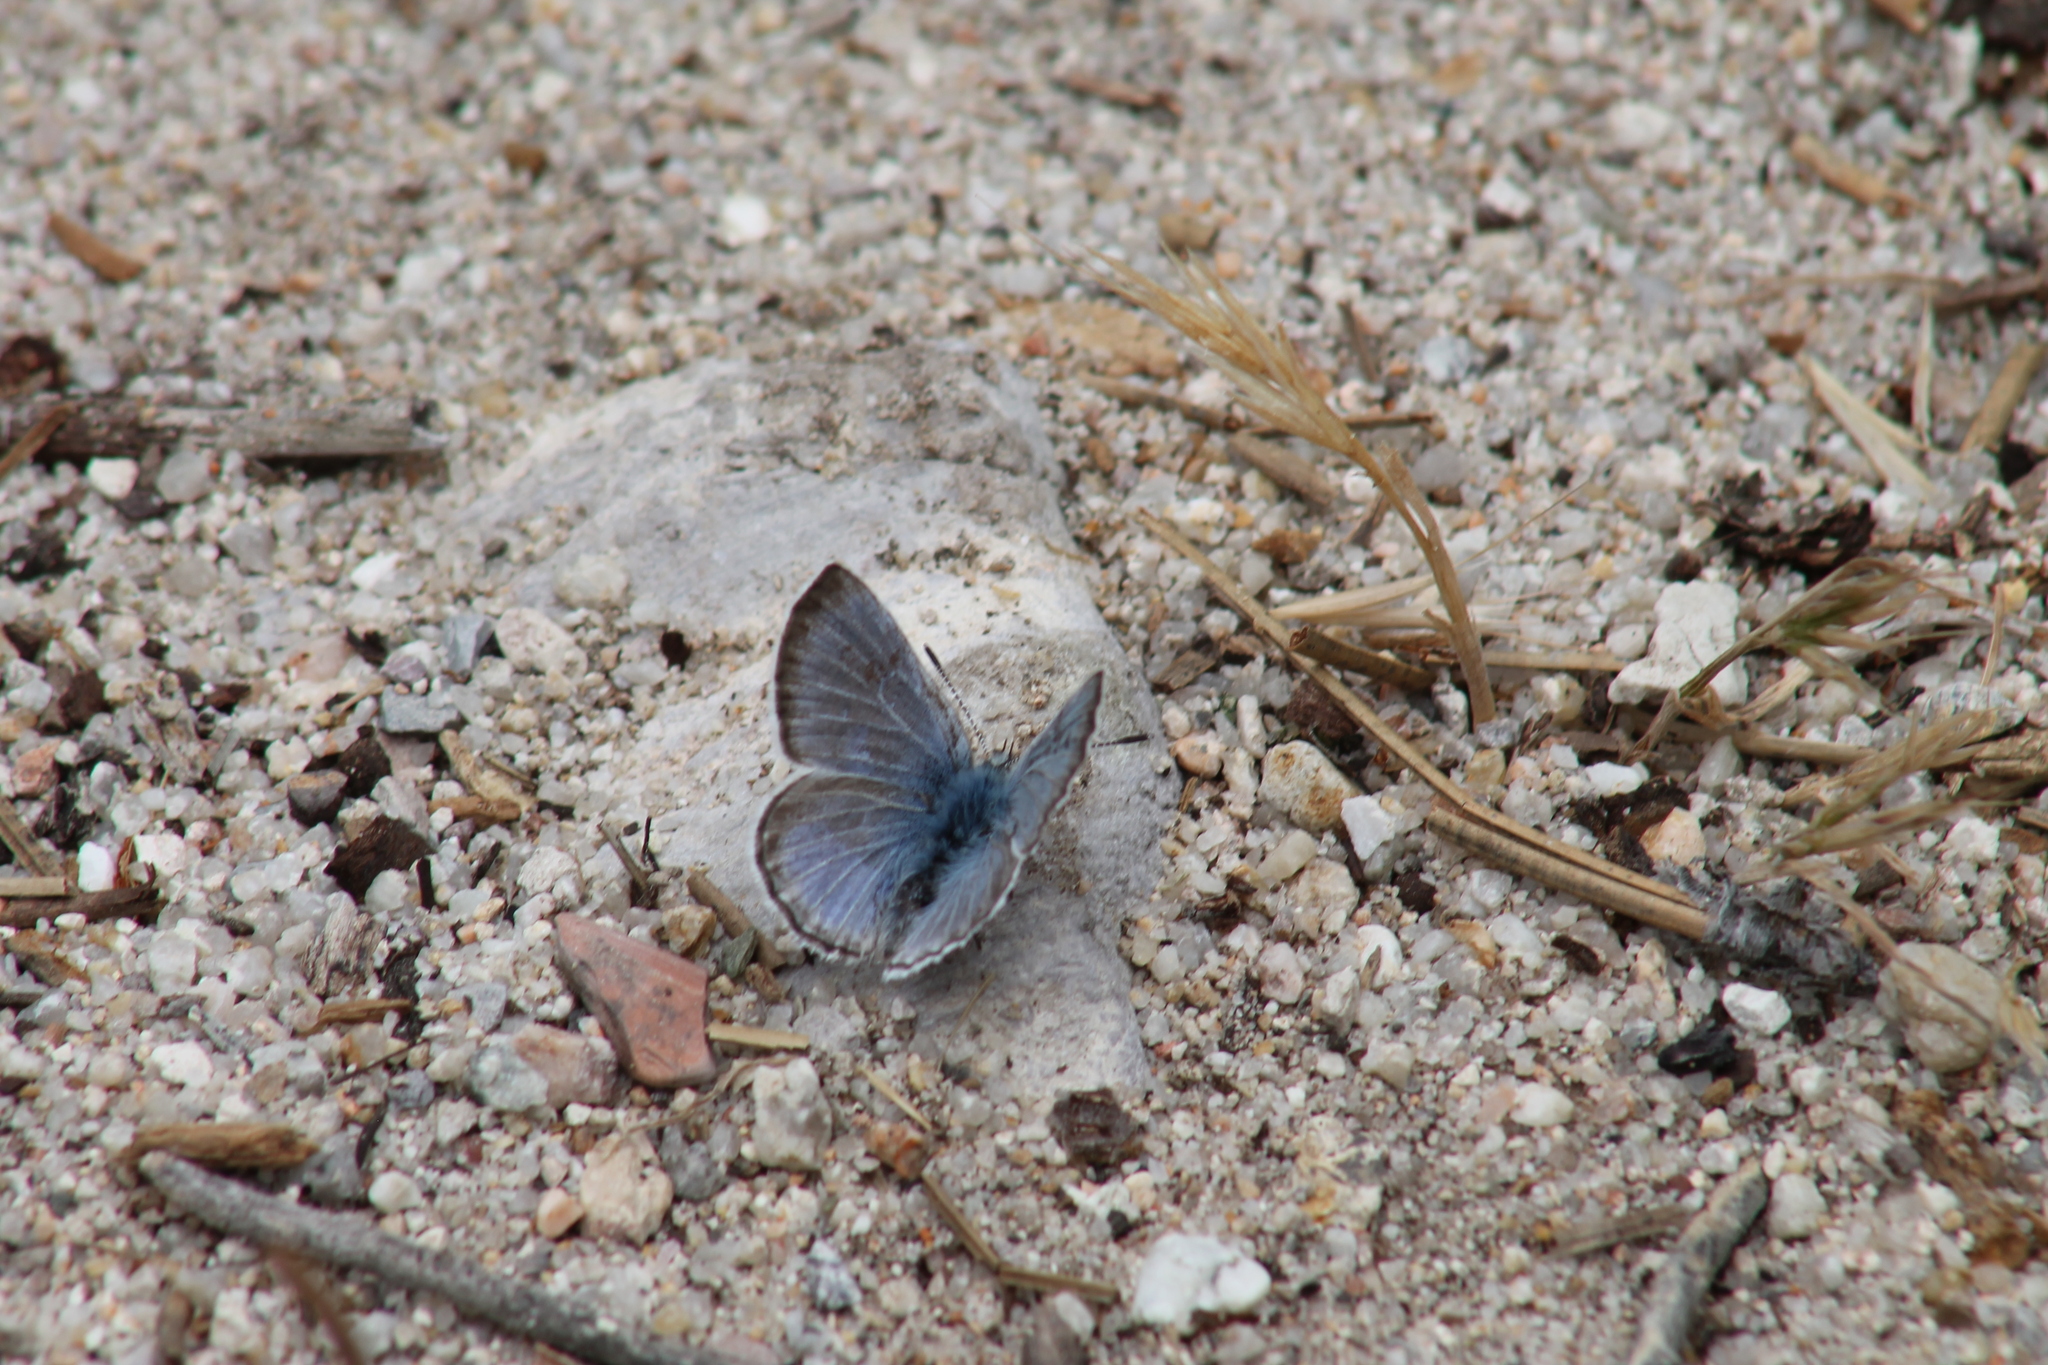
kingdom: Animalia
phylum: Arthropoda
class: Insecta
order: Lepidoptera
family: Lycaenidae
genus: Icaricia
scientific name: Icaricia icarioides
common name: Boisduval's blue
